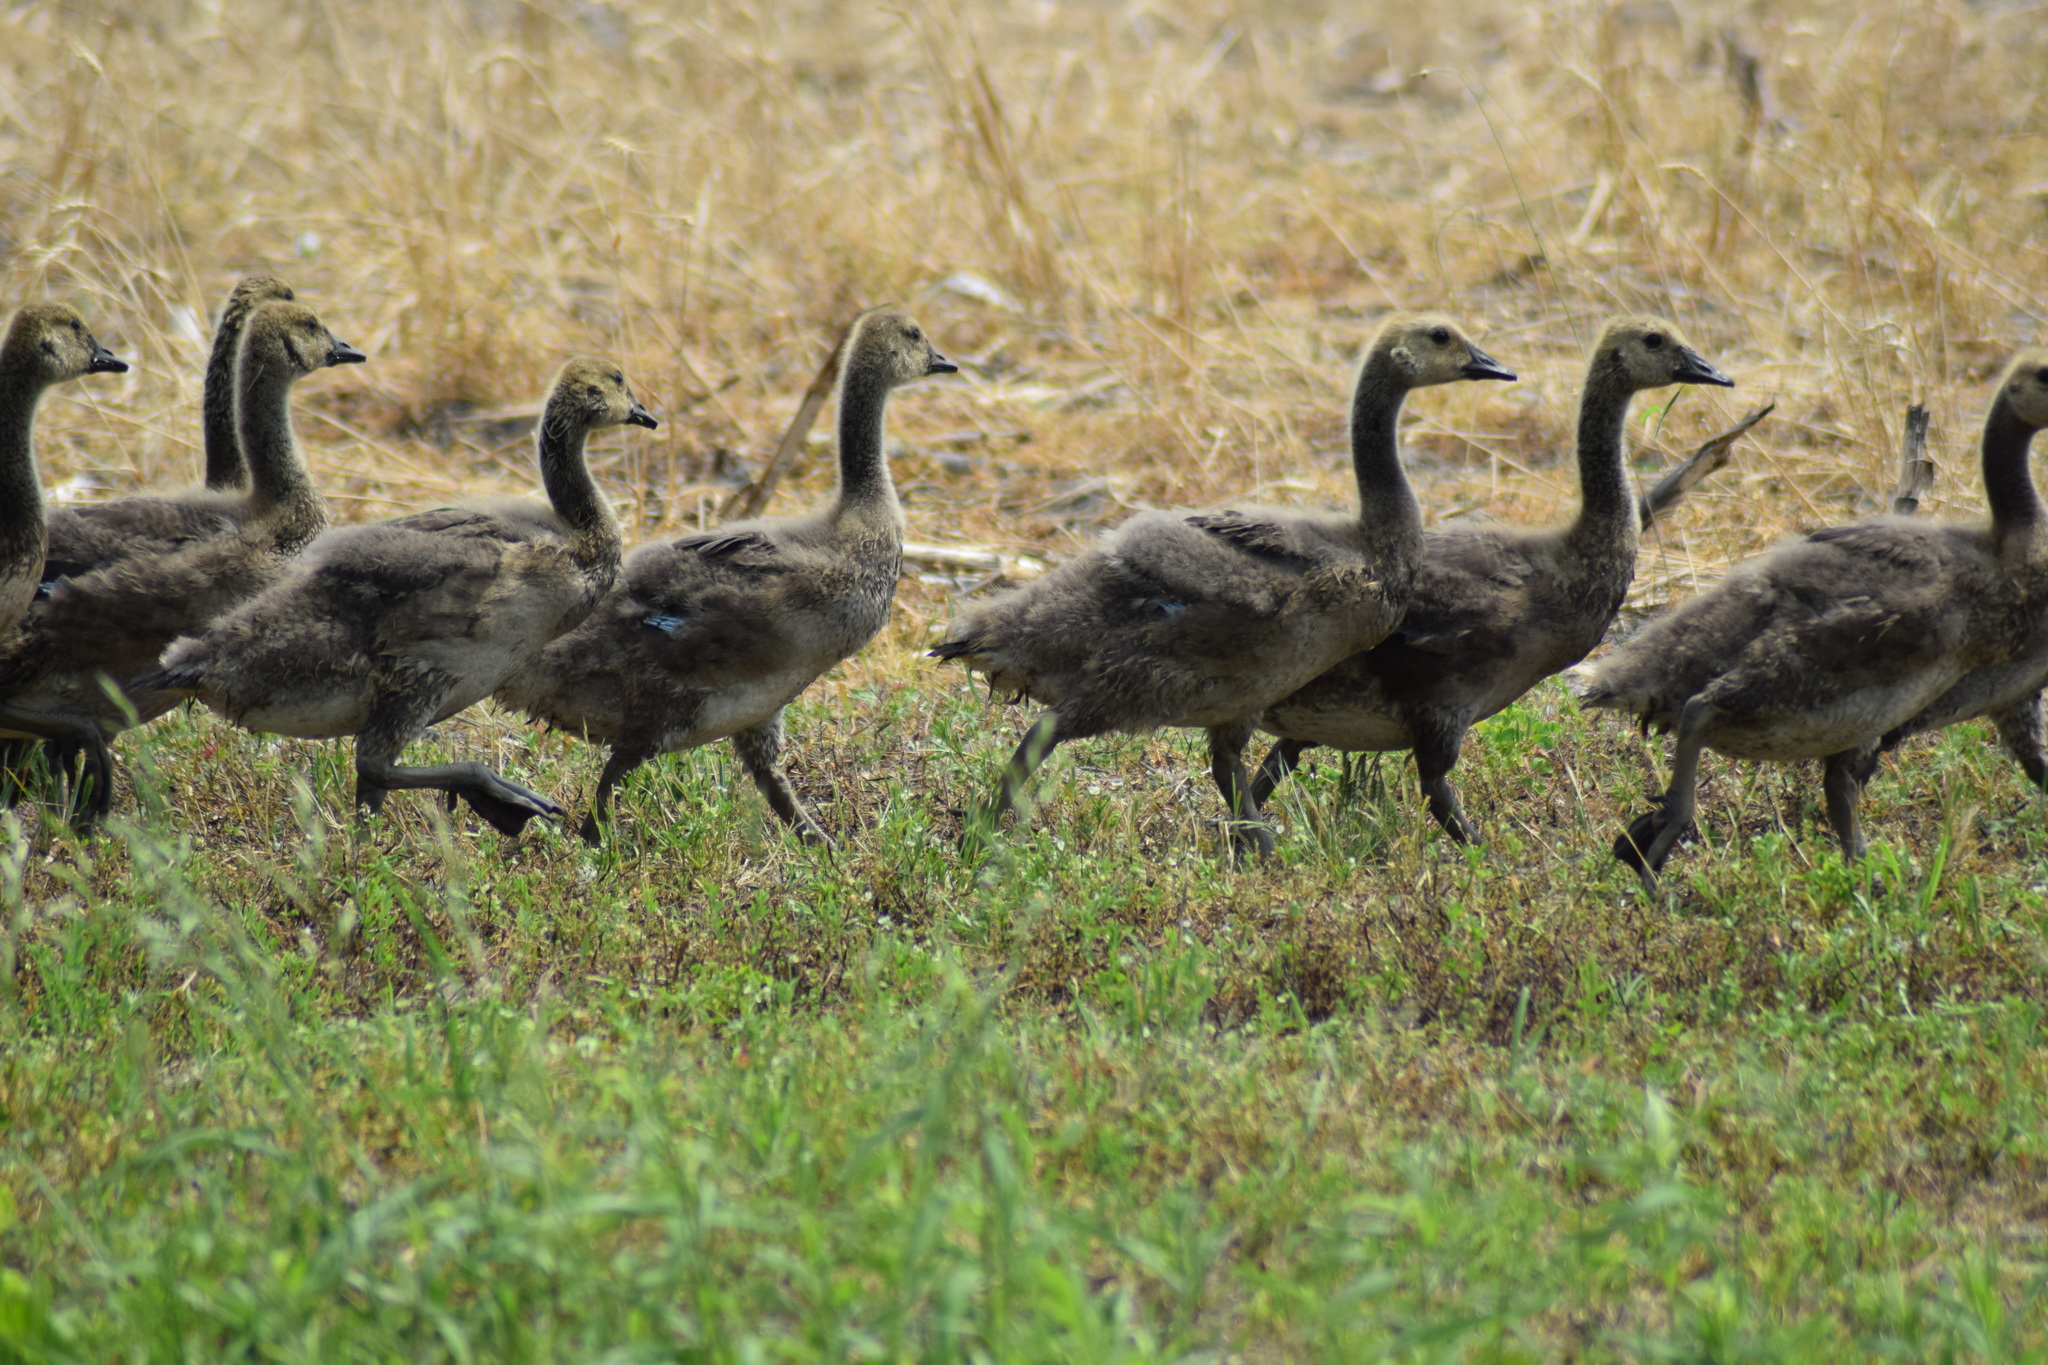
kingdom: Animalia
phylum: Chordata
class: Aves
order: Anseriformes
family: Anatidae
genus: Branta
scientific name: Branta canadensis
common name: Canada goose
